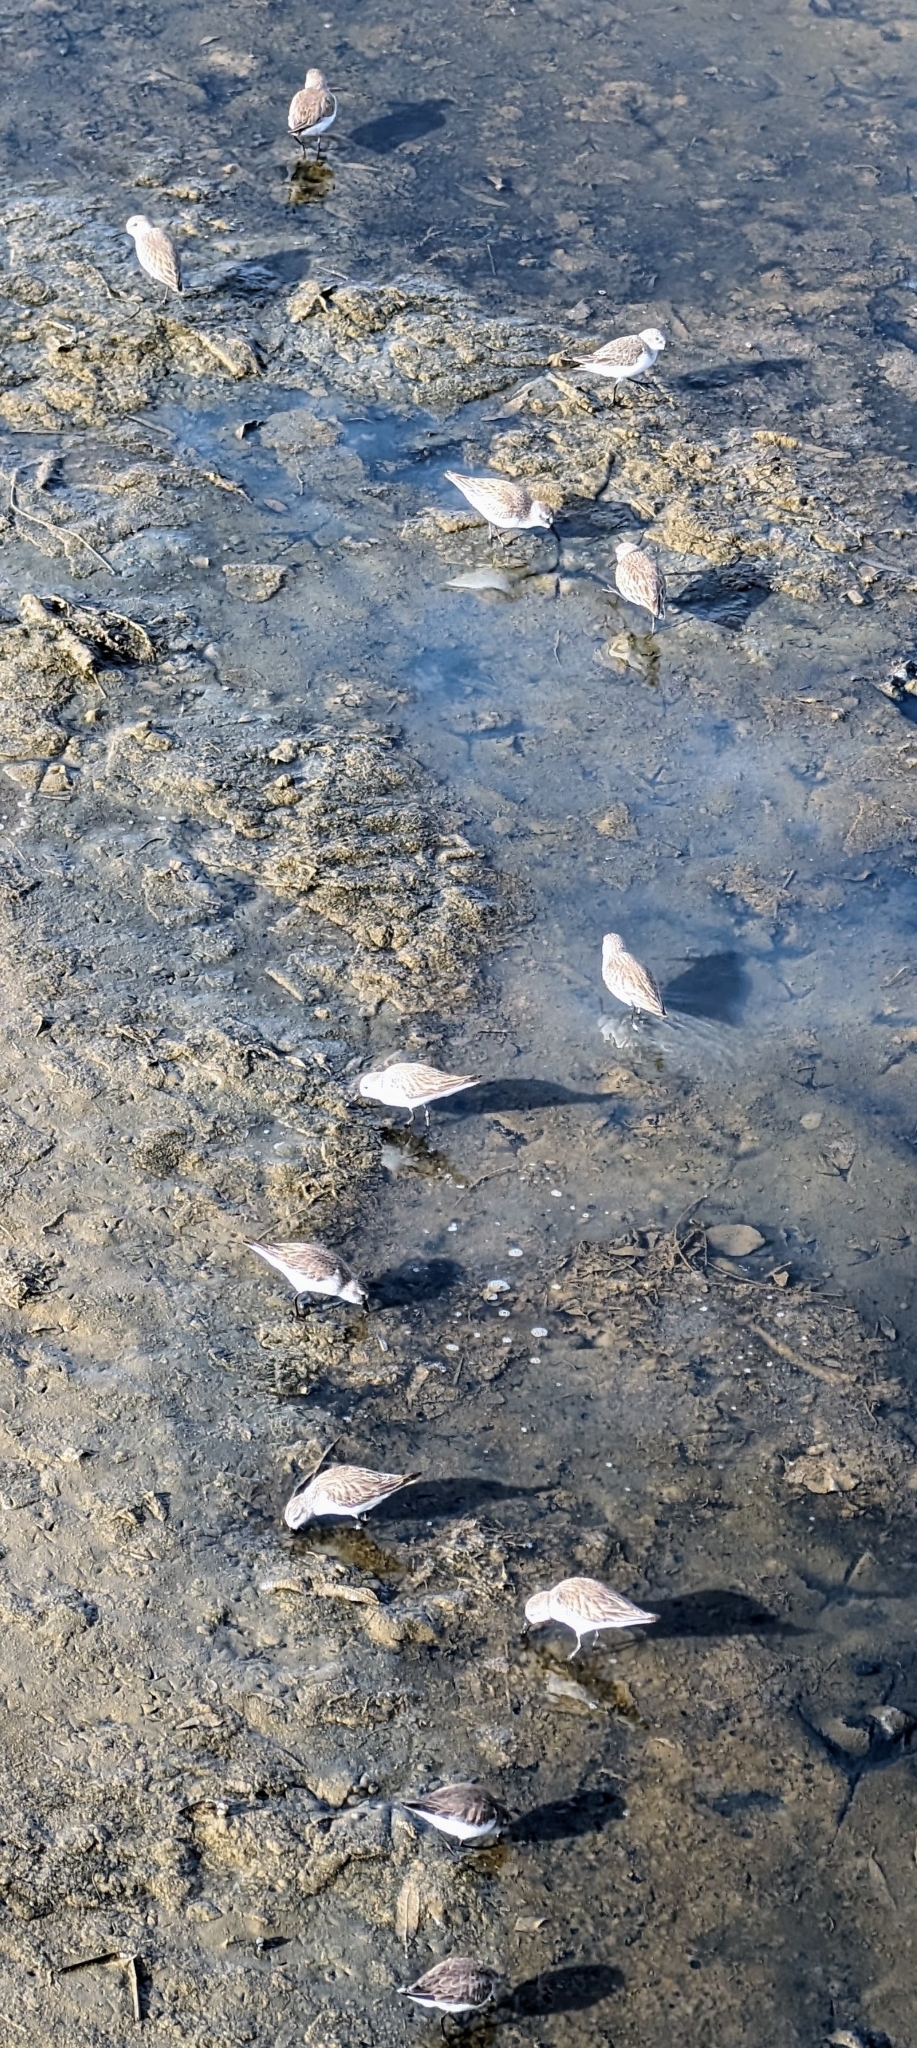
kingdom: Animalia
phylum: Chordata
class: Aves
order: Charadriiformes
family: Scolopacidae
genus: Calidris
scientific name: Calidris alba
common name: Sanderling
